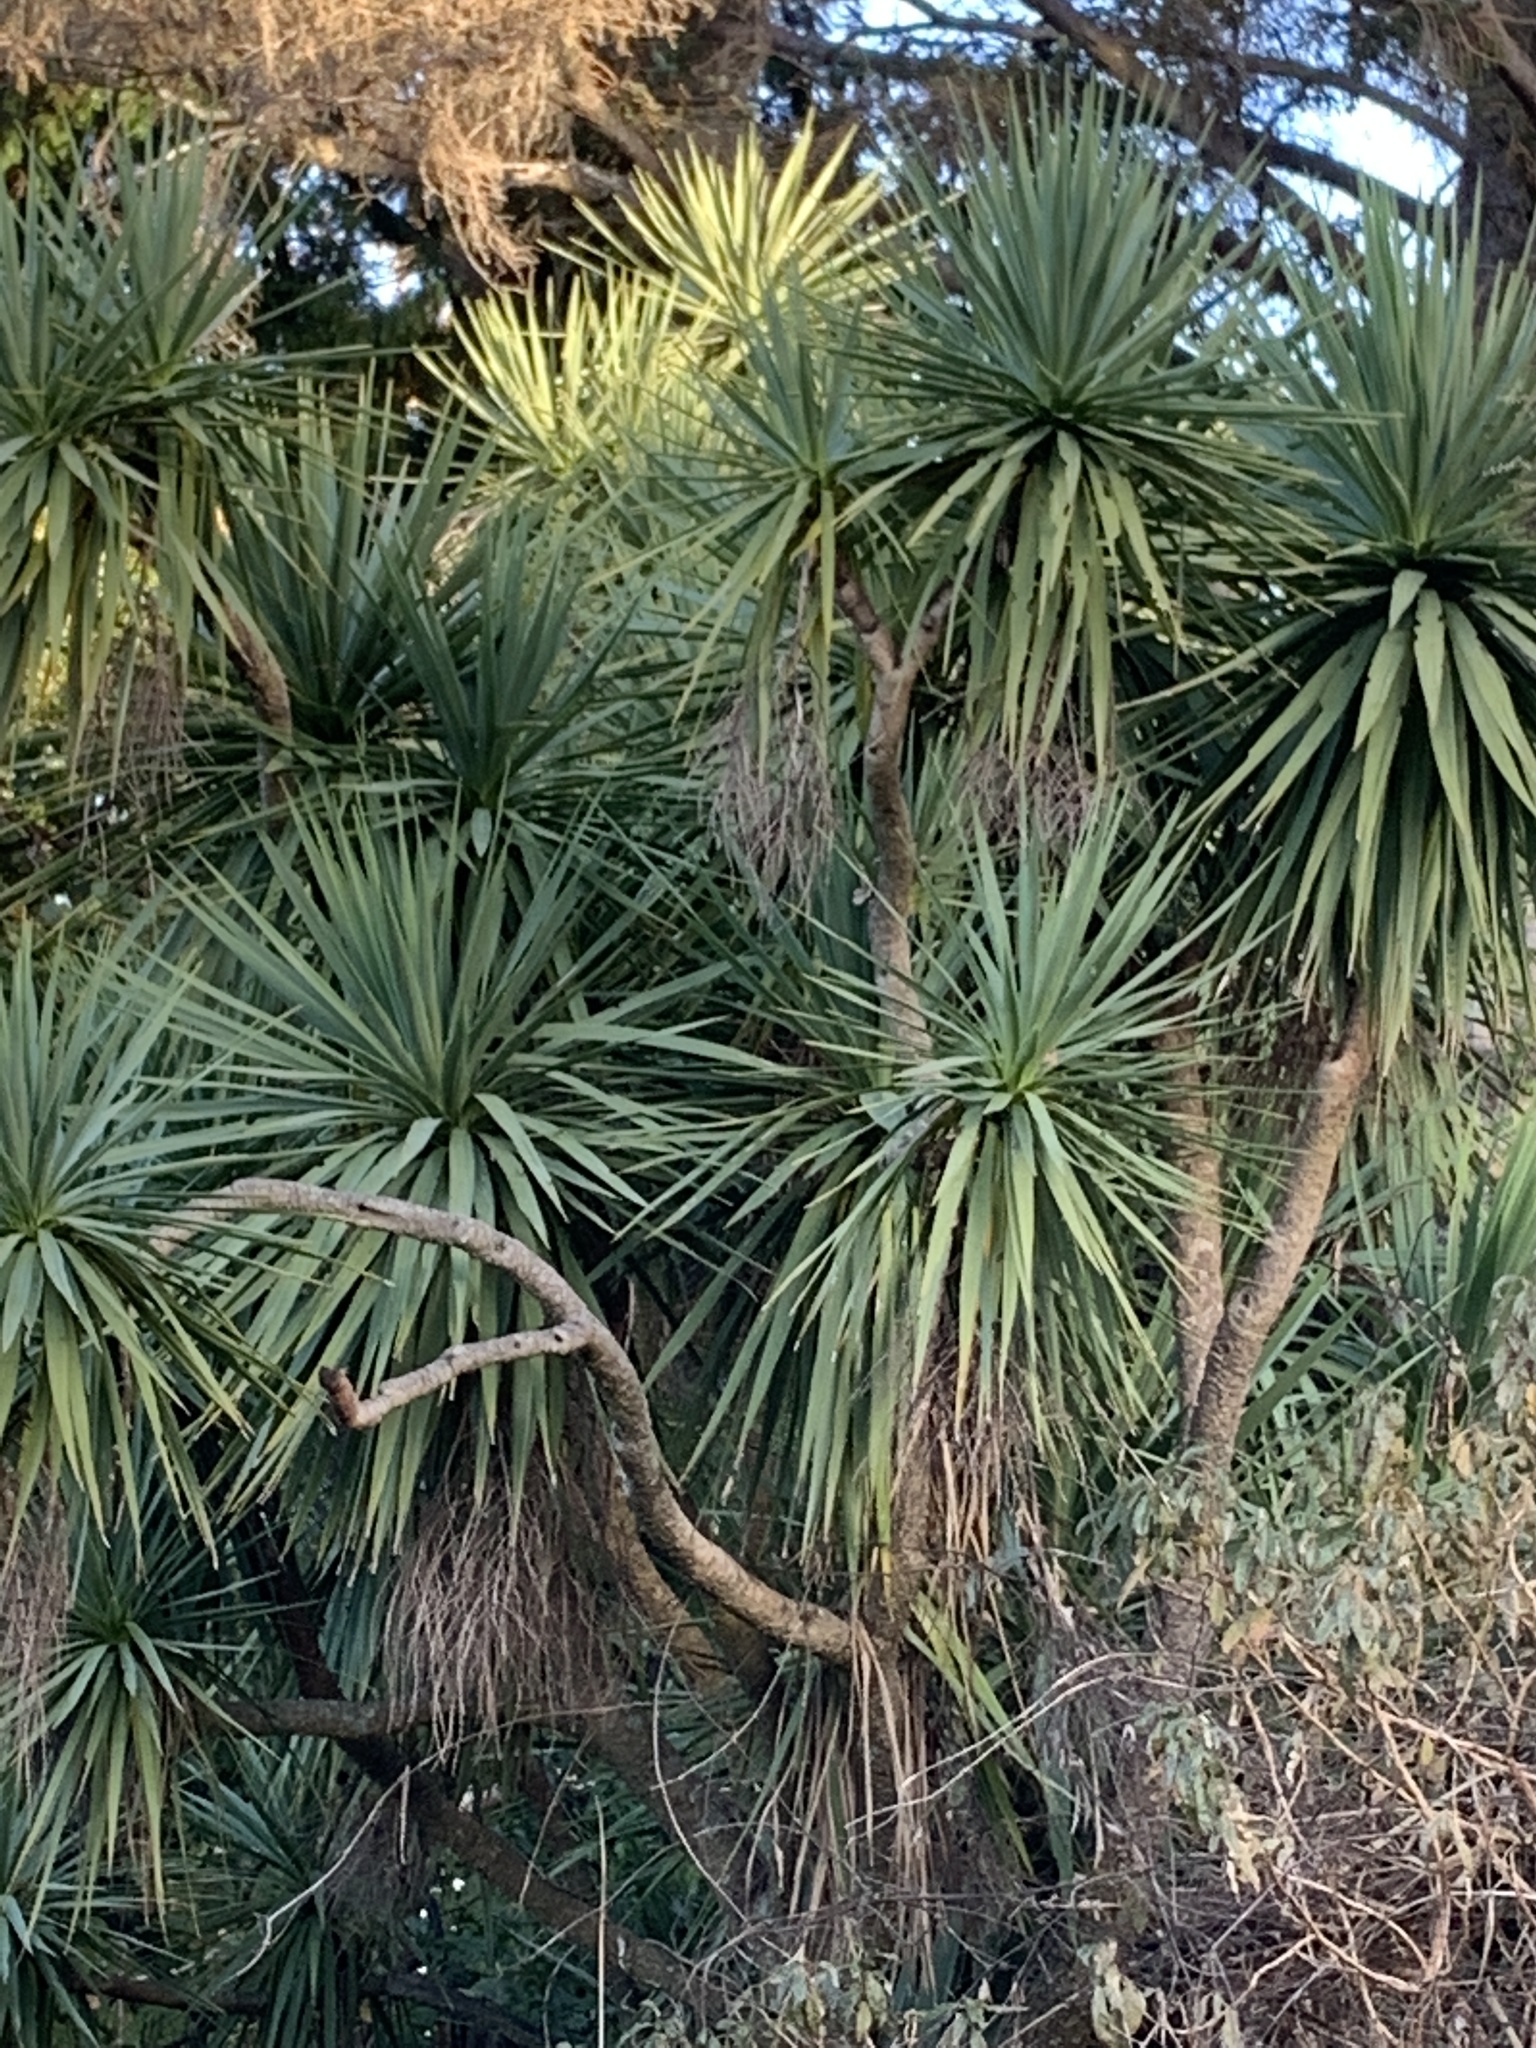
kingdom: Plantae
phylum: Tracheophyta
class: Liliopsida
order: Asparagales
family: Asparagaceae
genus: Cordyline
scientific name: Cordyline australis
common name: Cabbage-palm
